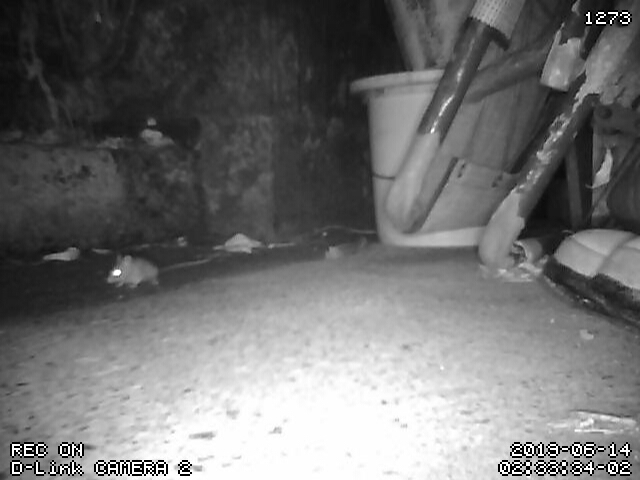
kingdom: Animalia
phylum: Chordata
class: Mammalia
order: Rodentia
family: Muridae
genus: Mus
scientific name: Mus musculus
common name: House mouse
